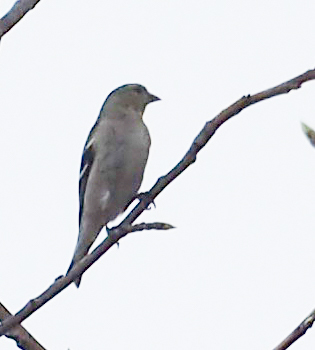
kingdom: Animalia
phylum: Chordata
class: Aves
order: Passeriformes
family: Fringillidae
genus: Spinus
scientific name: Spinus tristis
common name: American goldfinch
